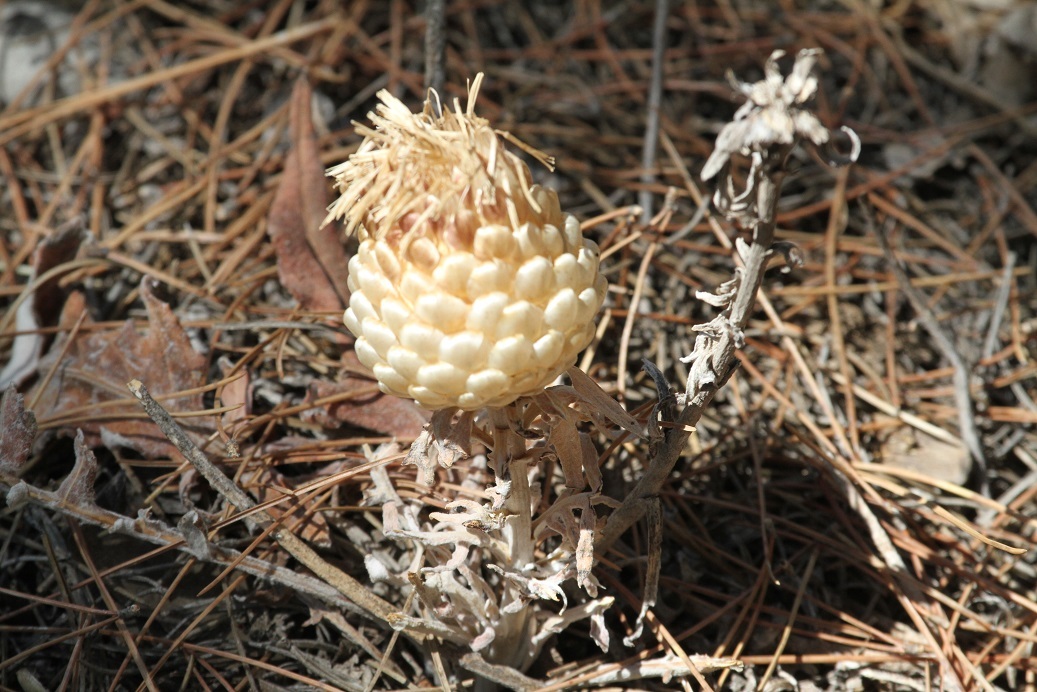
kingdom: Plantae
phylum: Tracheophyta
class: Magnoliopsida
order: Asterales
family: Asteraceae
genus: Leuzea
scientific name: Leuzea conifera
